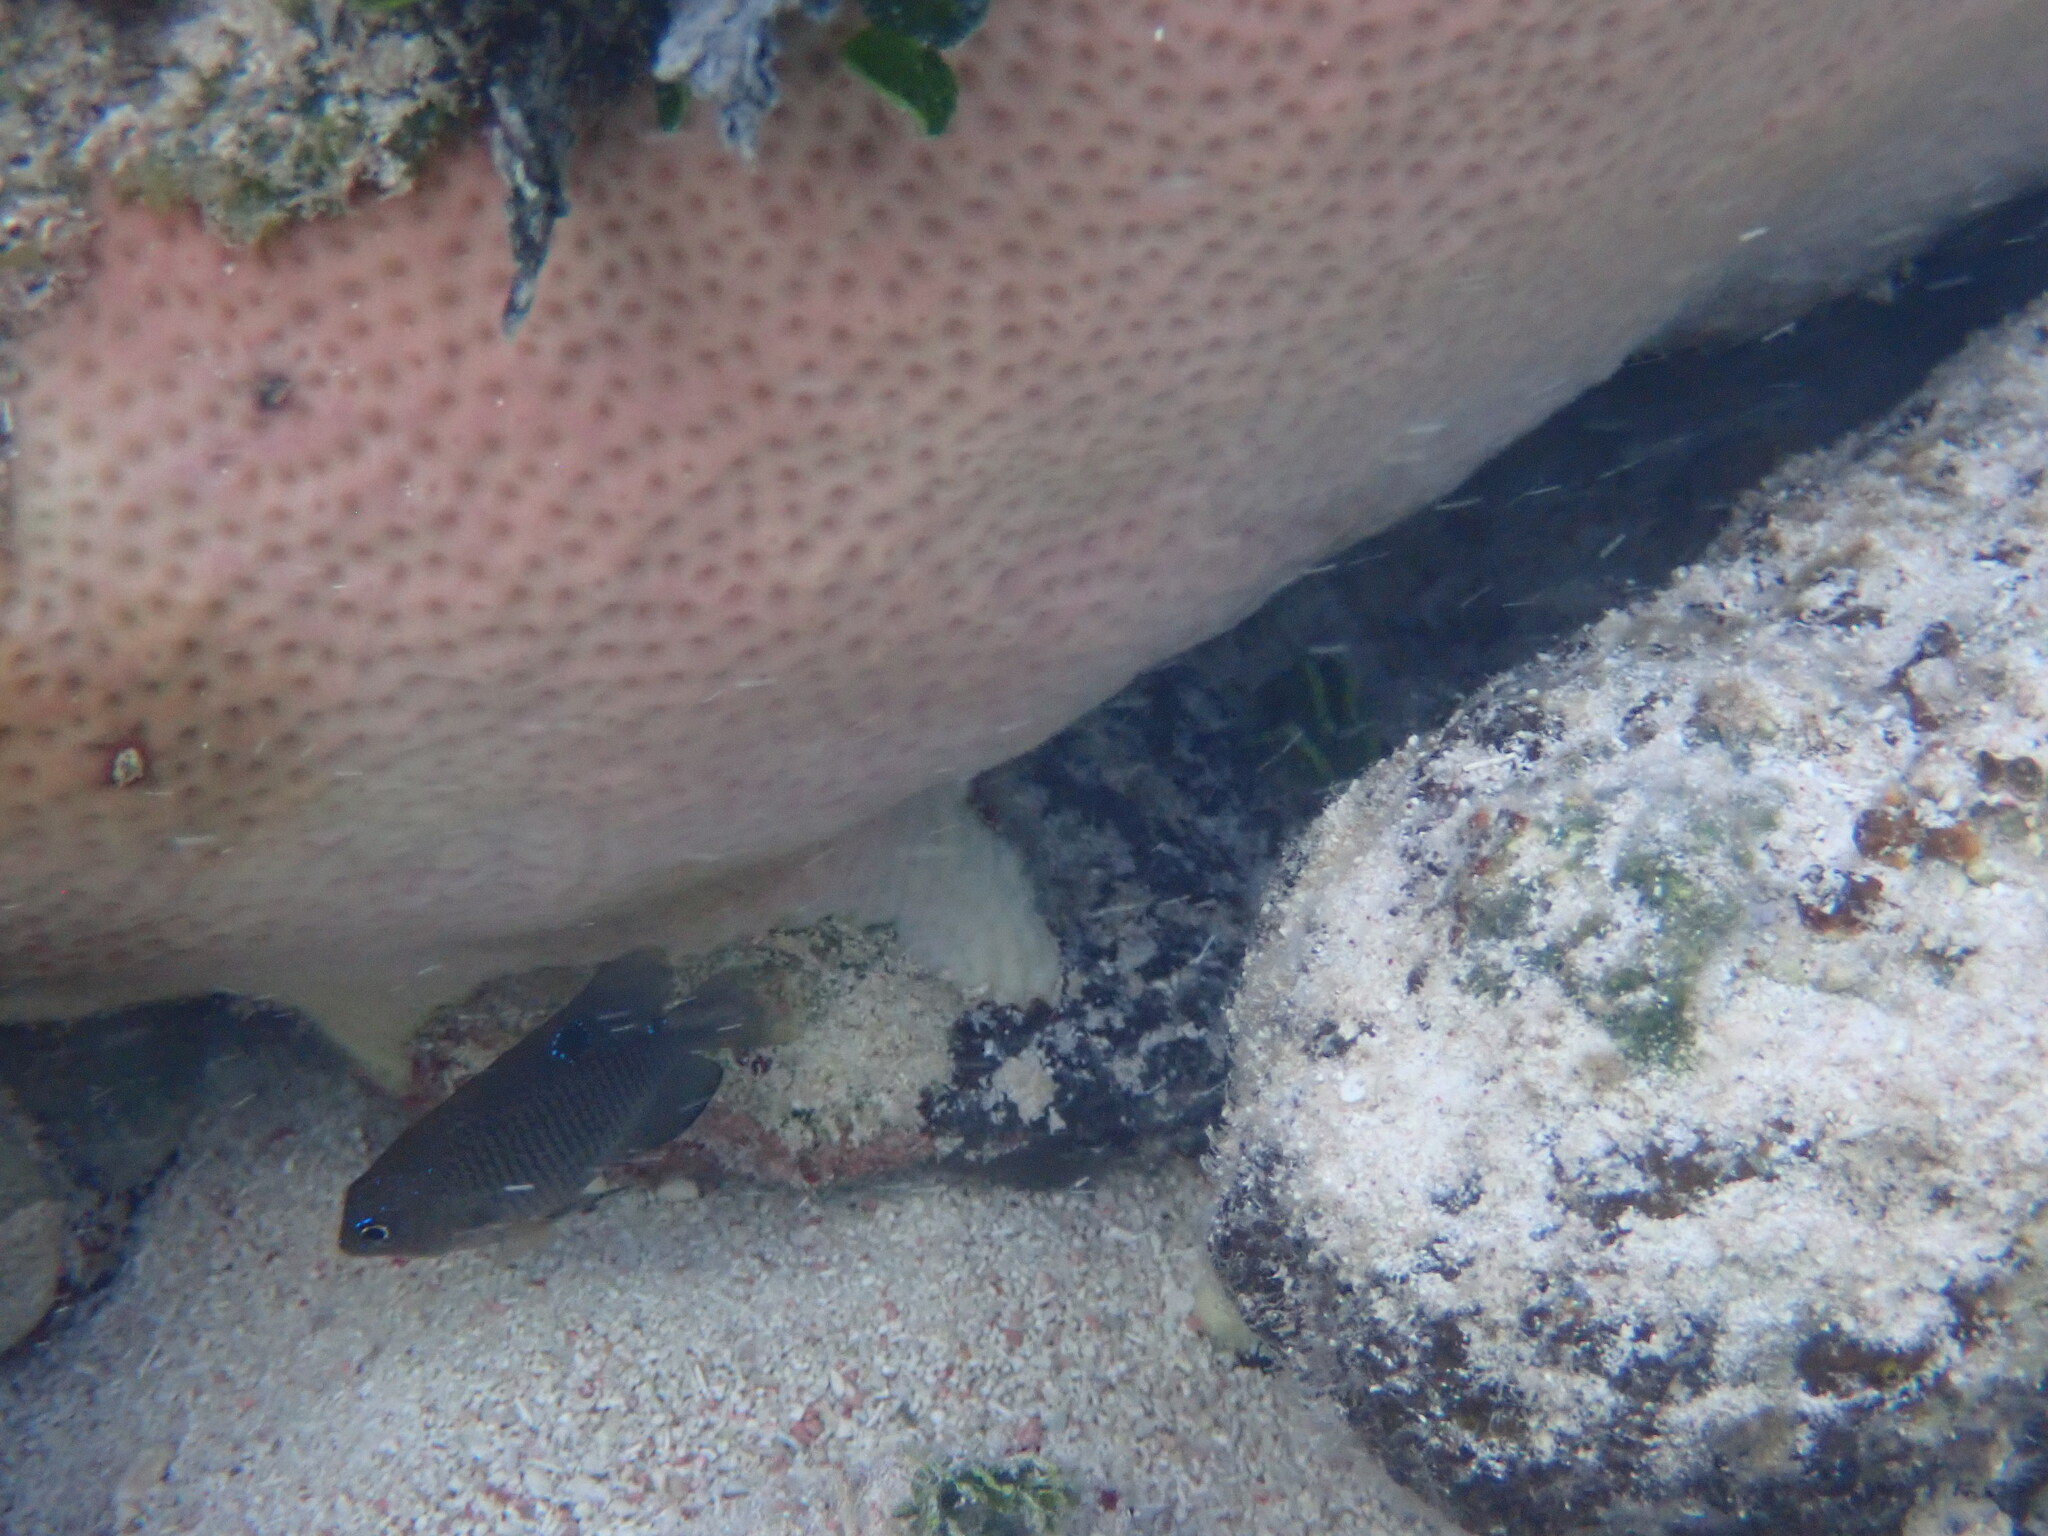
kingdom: Animalia
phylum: Cnidaria
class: Anthozoa
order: Scleractinia
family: Rhizangiidae
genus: Siderastrea
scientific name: Siderastrea siderea
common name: Massive starlet coral
